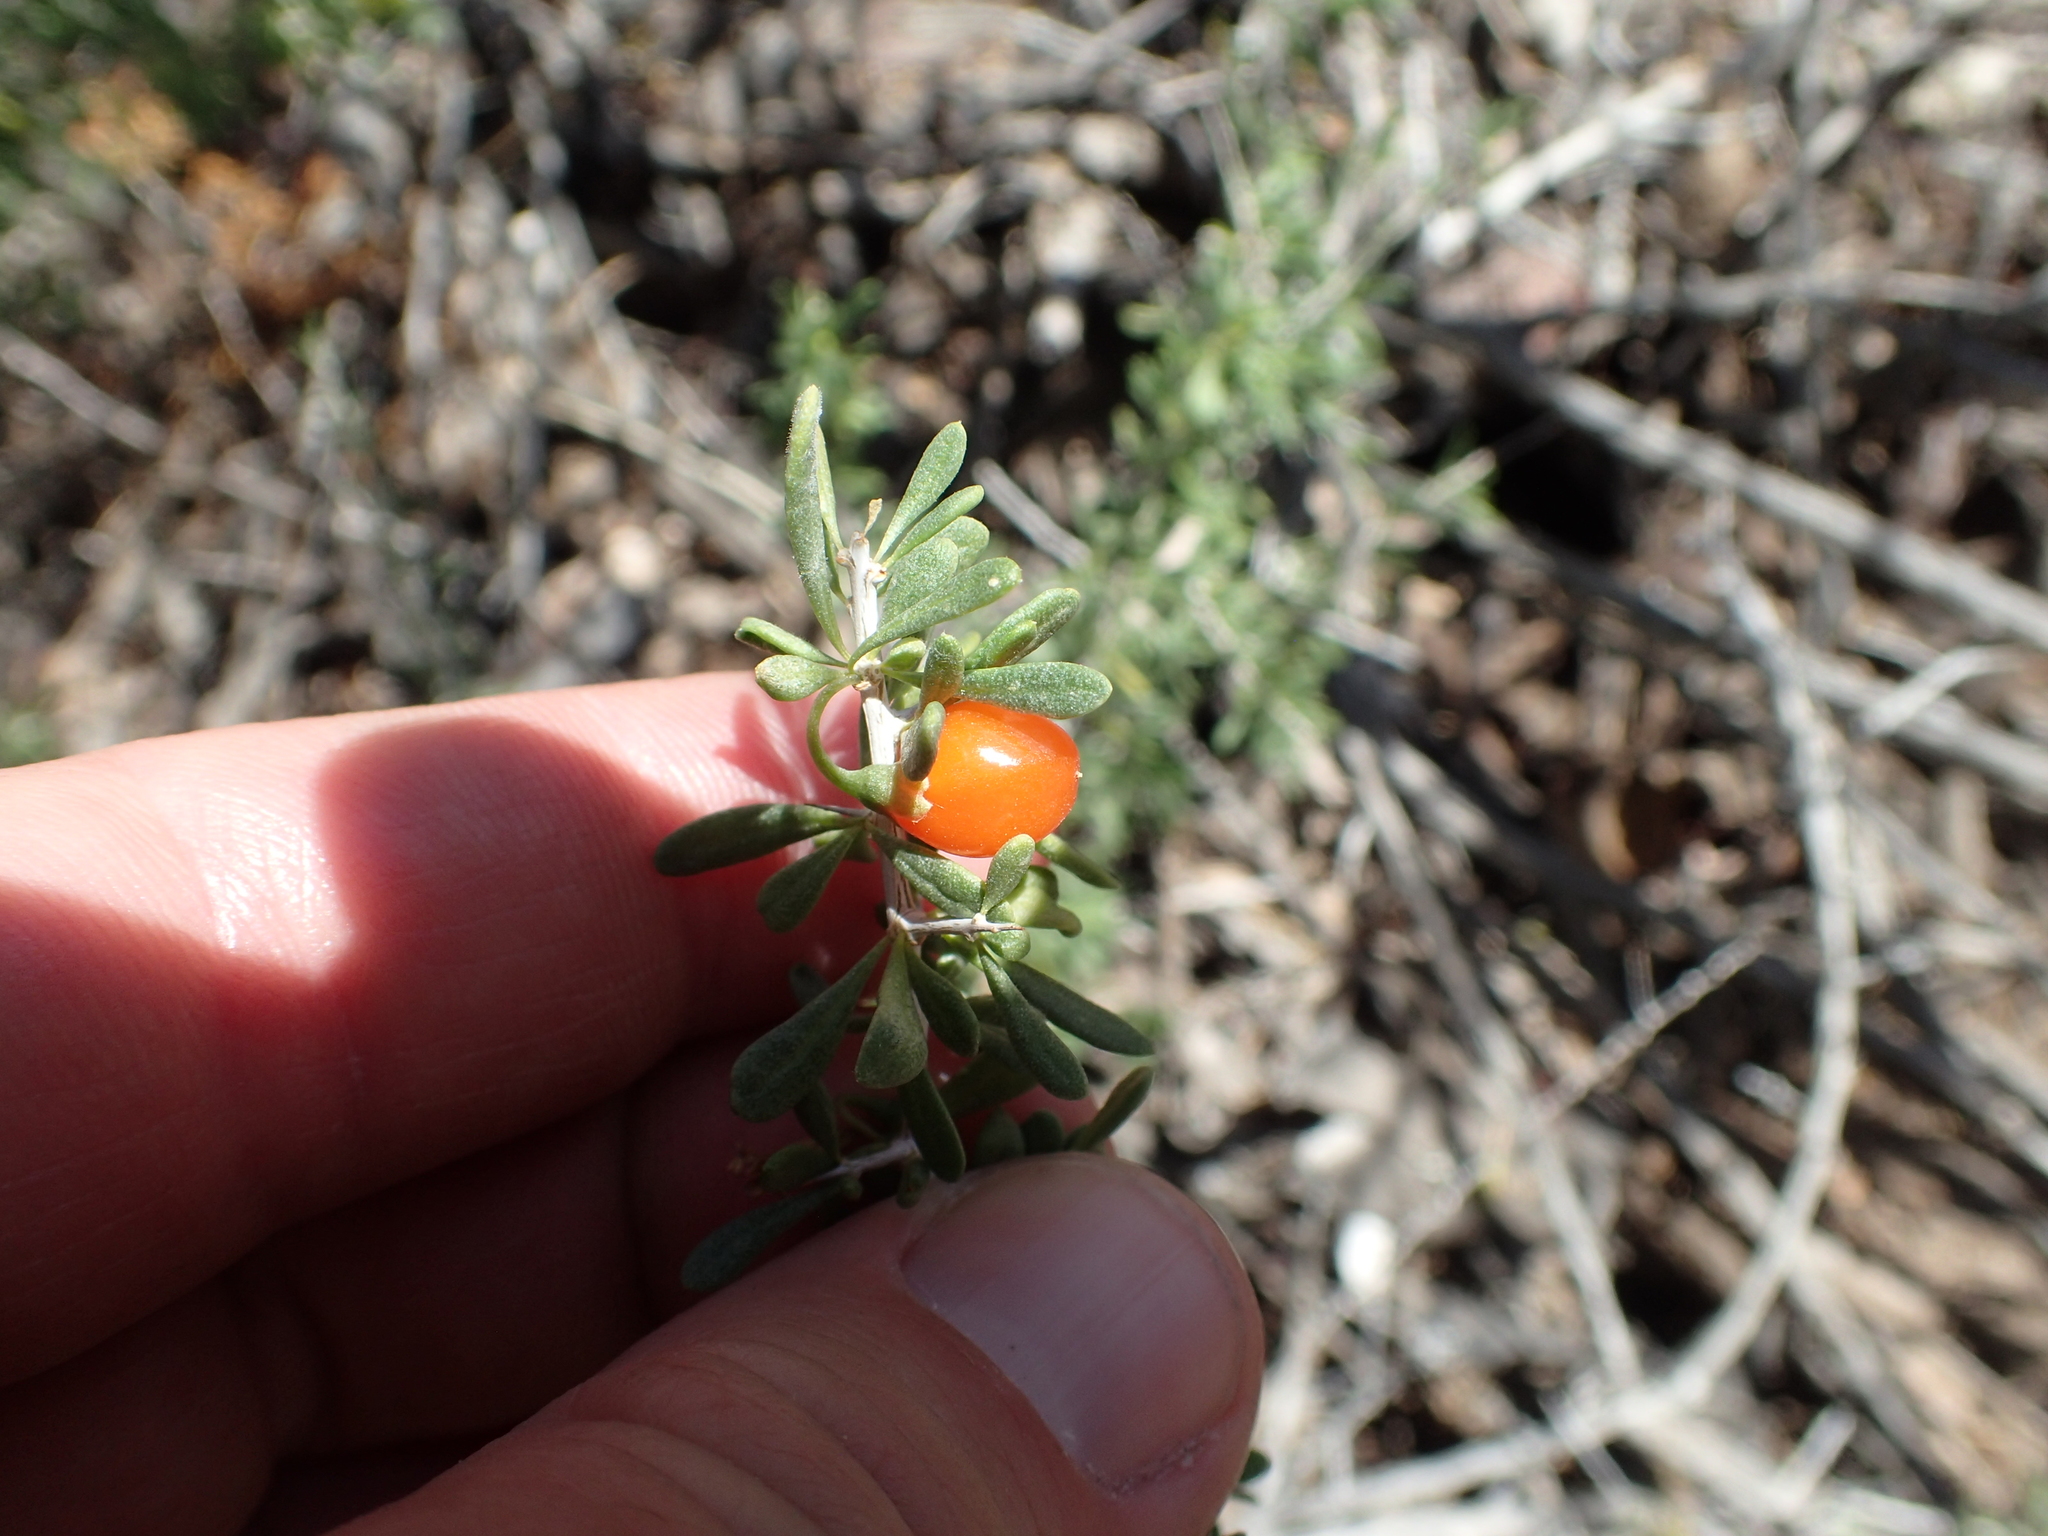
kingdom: Plantae
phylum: Tracheophyta
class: Magnoliopsida
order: Solanales
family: Solanaceae
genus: Lycium
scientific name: Lycium andersonii
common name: Water-jacket
